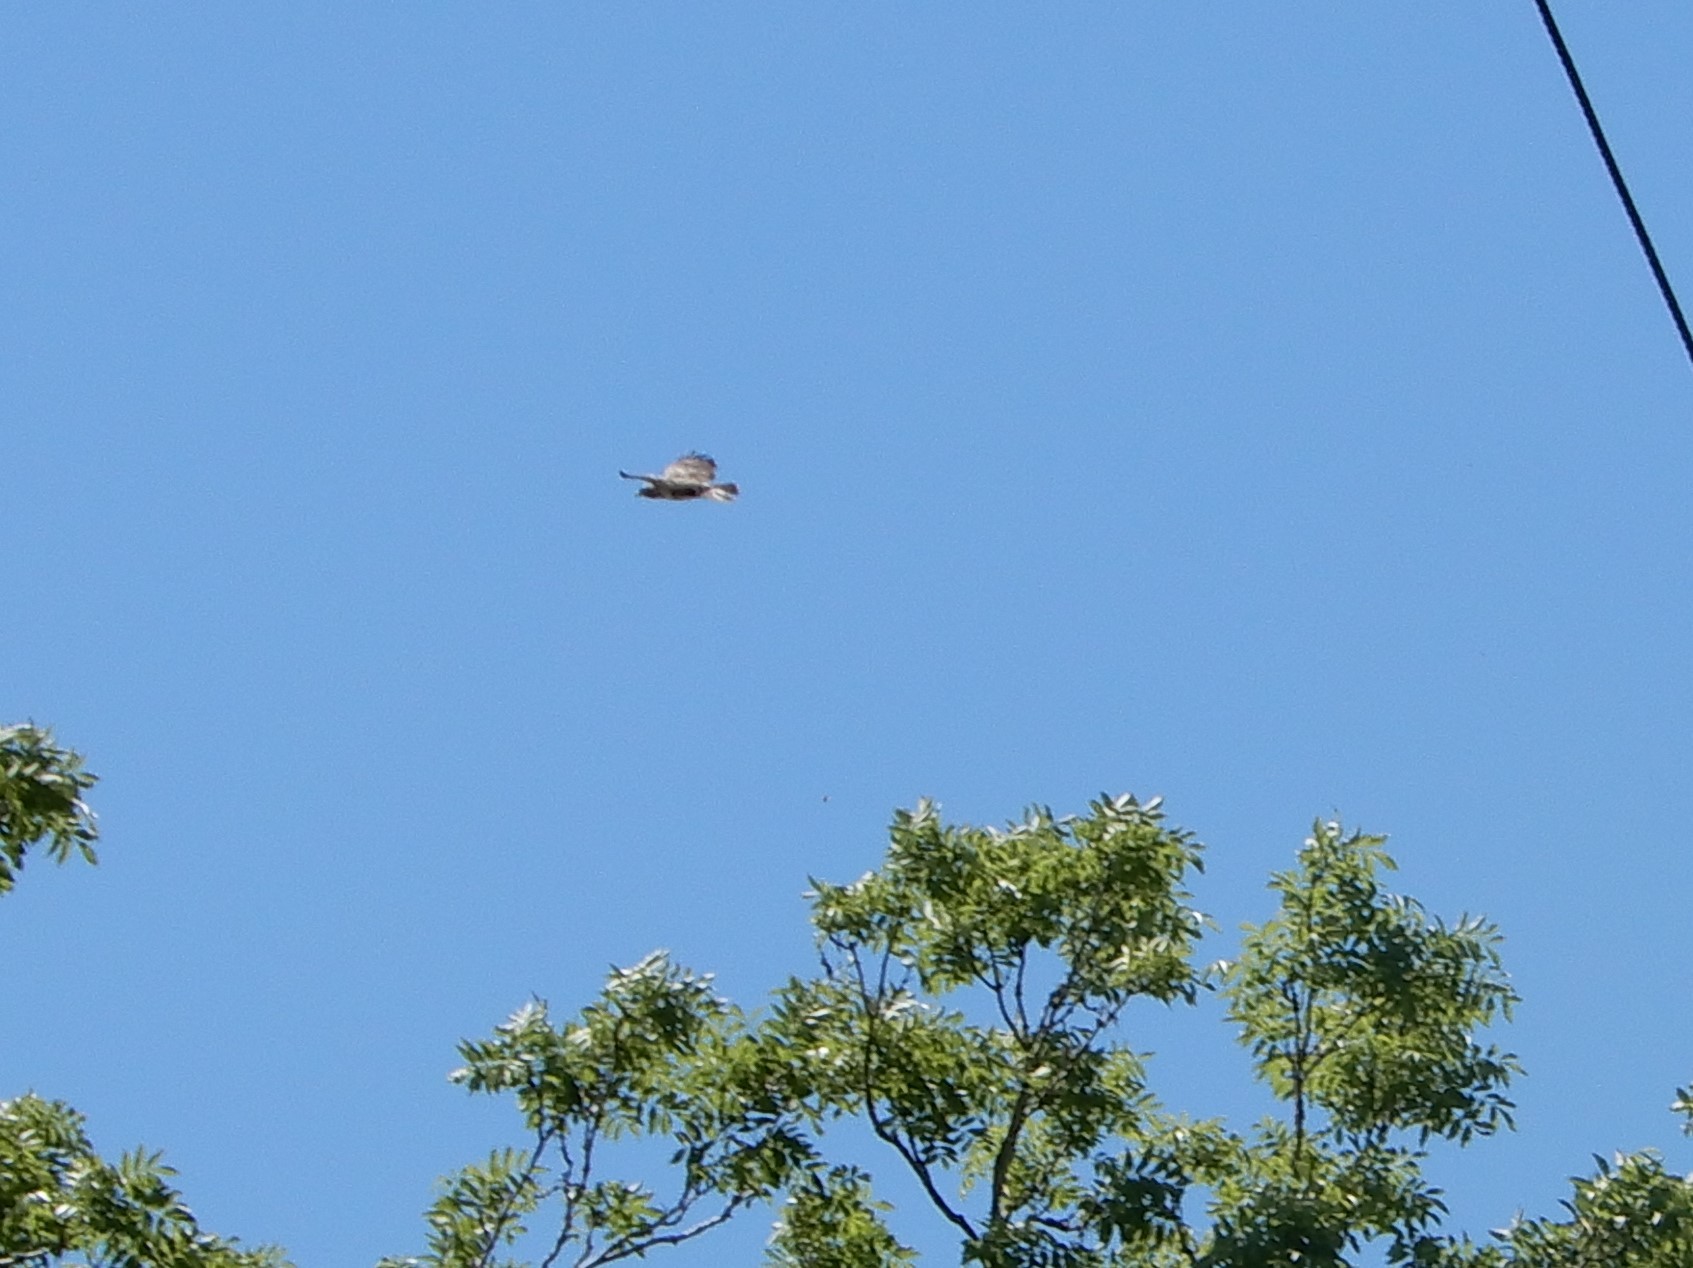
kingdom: Animalia
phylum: Chordata
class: Aves
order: Accipitriformes
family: Accipitridae
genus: Buteo
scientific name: Buteo buteo
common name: Common buzzard
